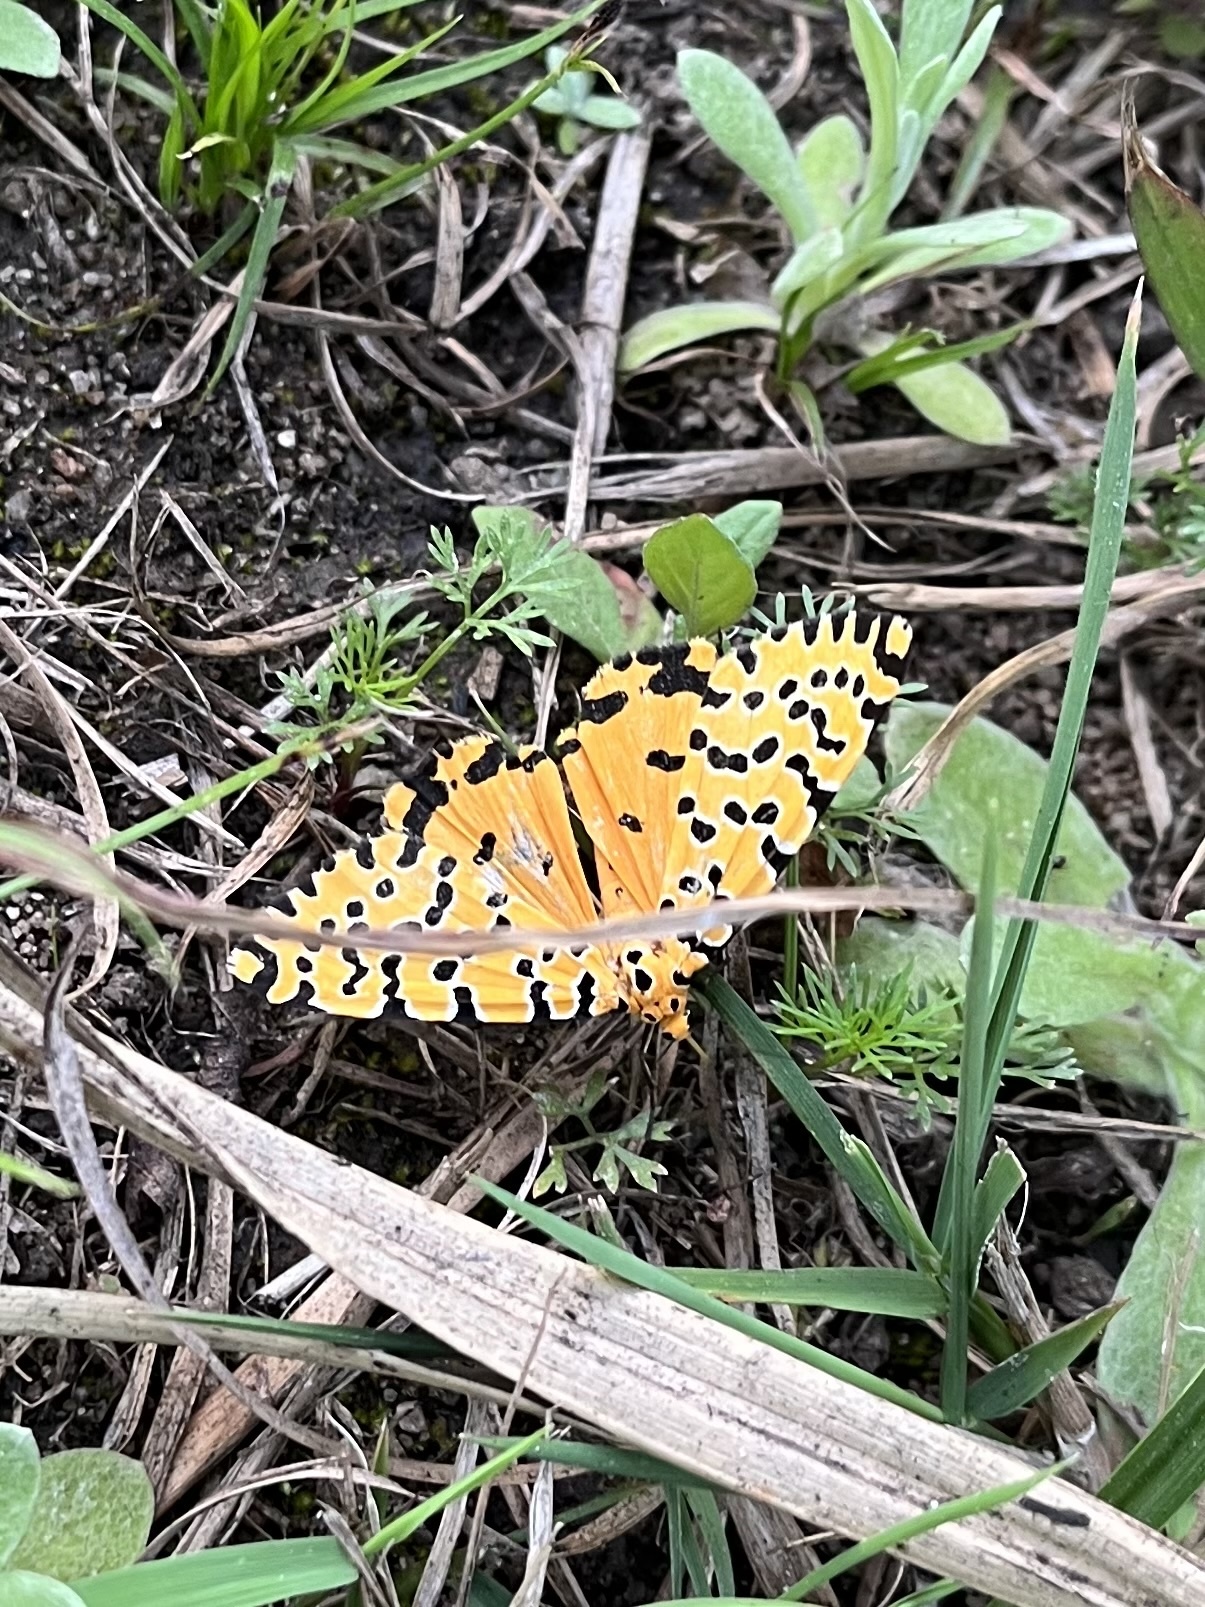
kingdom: Animalia
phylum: Arthropoda
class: Insecta
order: Lepidoptera
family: Erebidae
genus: Argina
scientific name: Argina Alytarchia amanda
